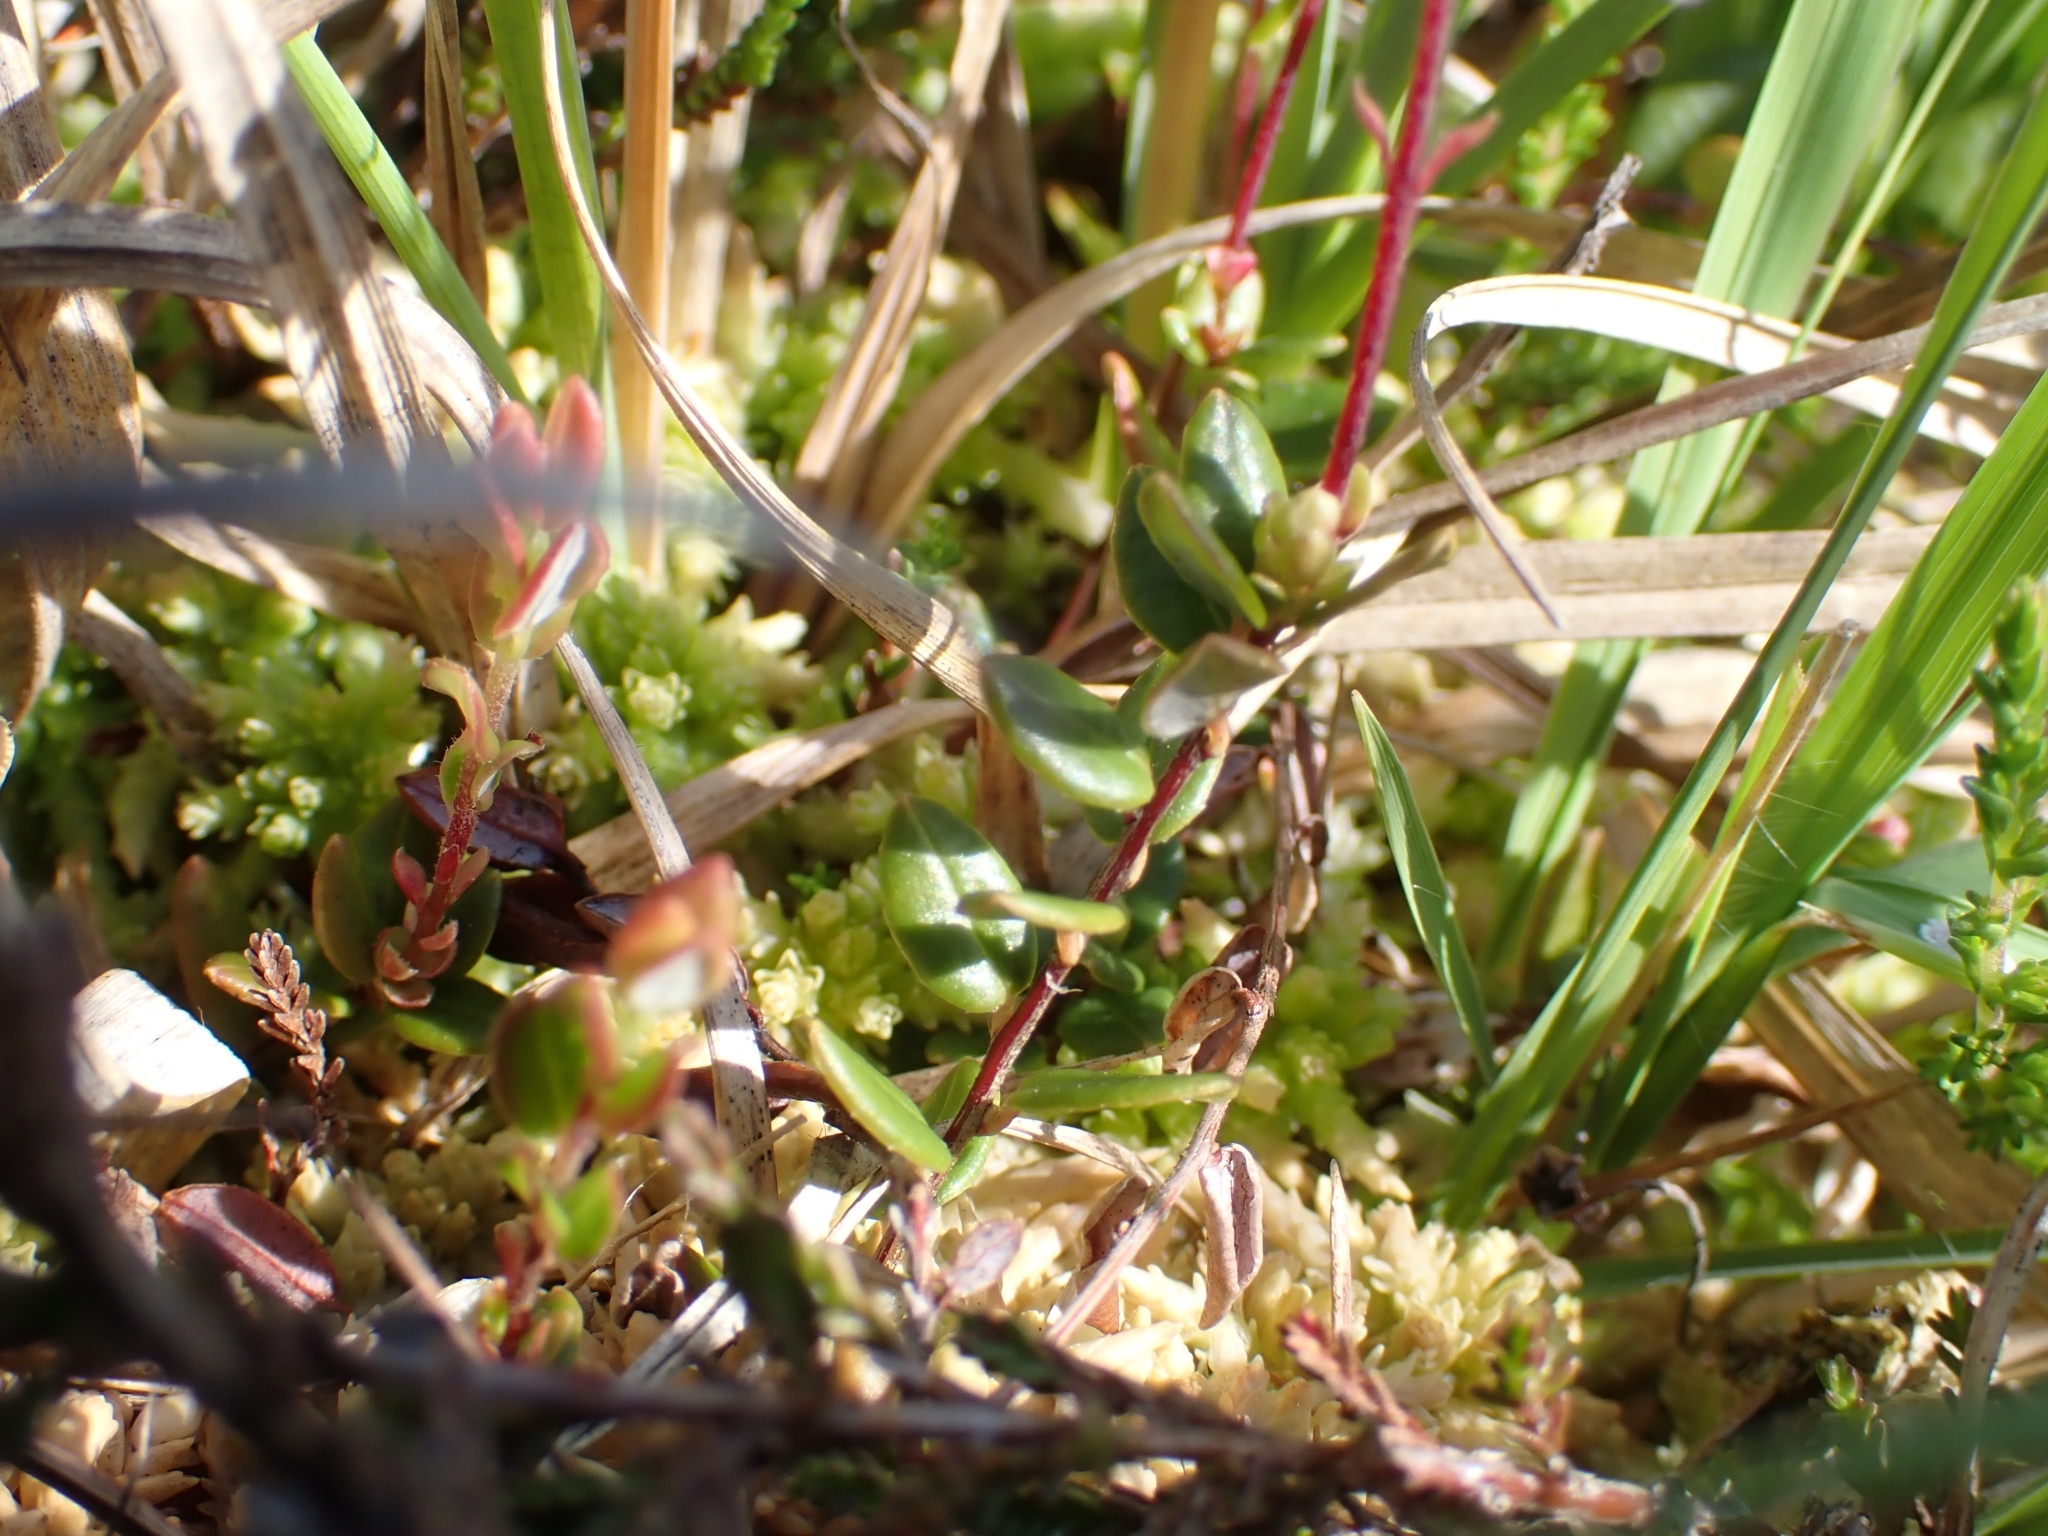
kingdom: Plantae
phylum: Tracheophyta
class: Magnoliopsida
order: Ericales
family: Ericaceae
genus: Vaccinium
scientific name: Vaccinium oxycoccos
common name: Cranberry
